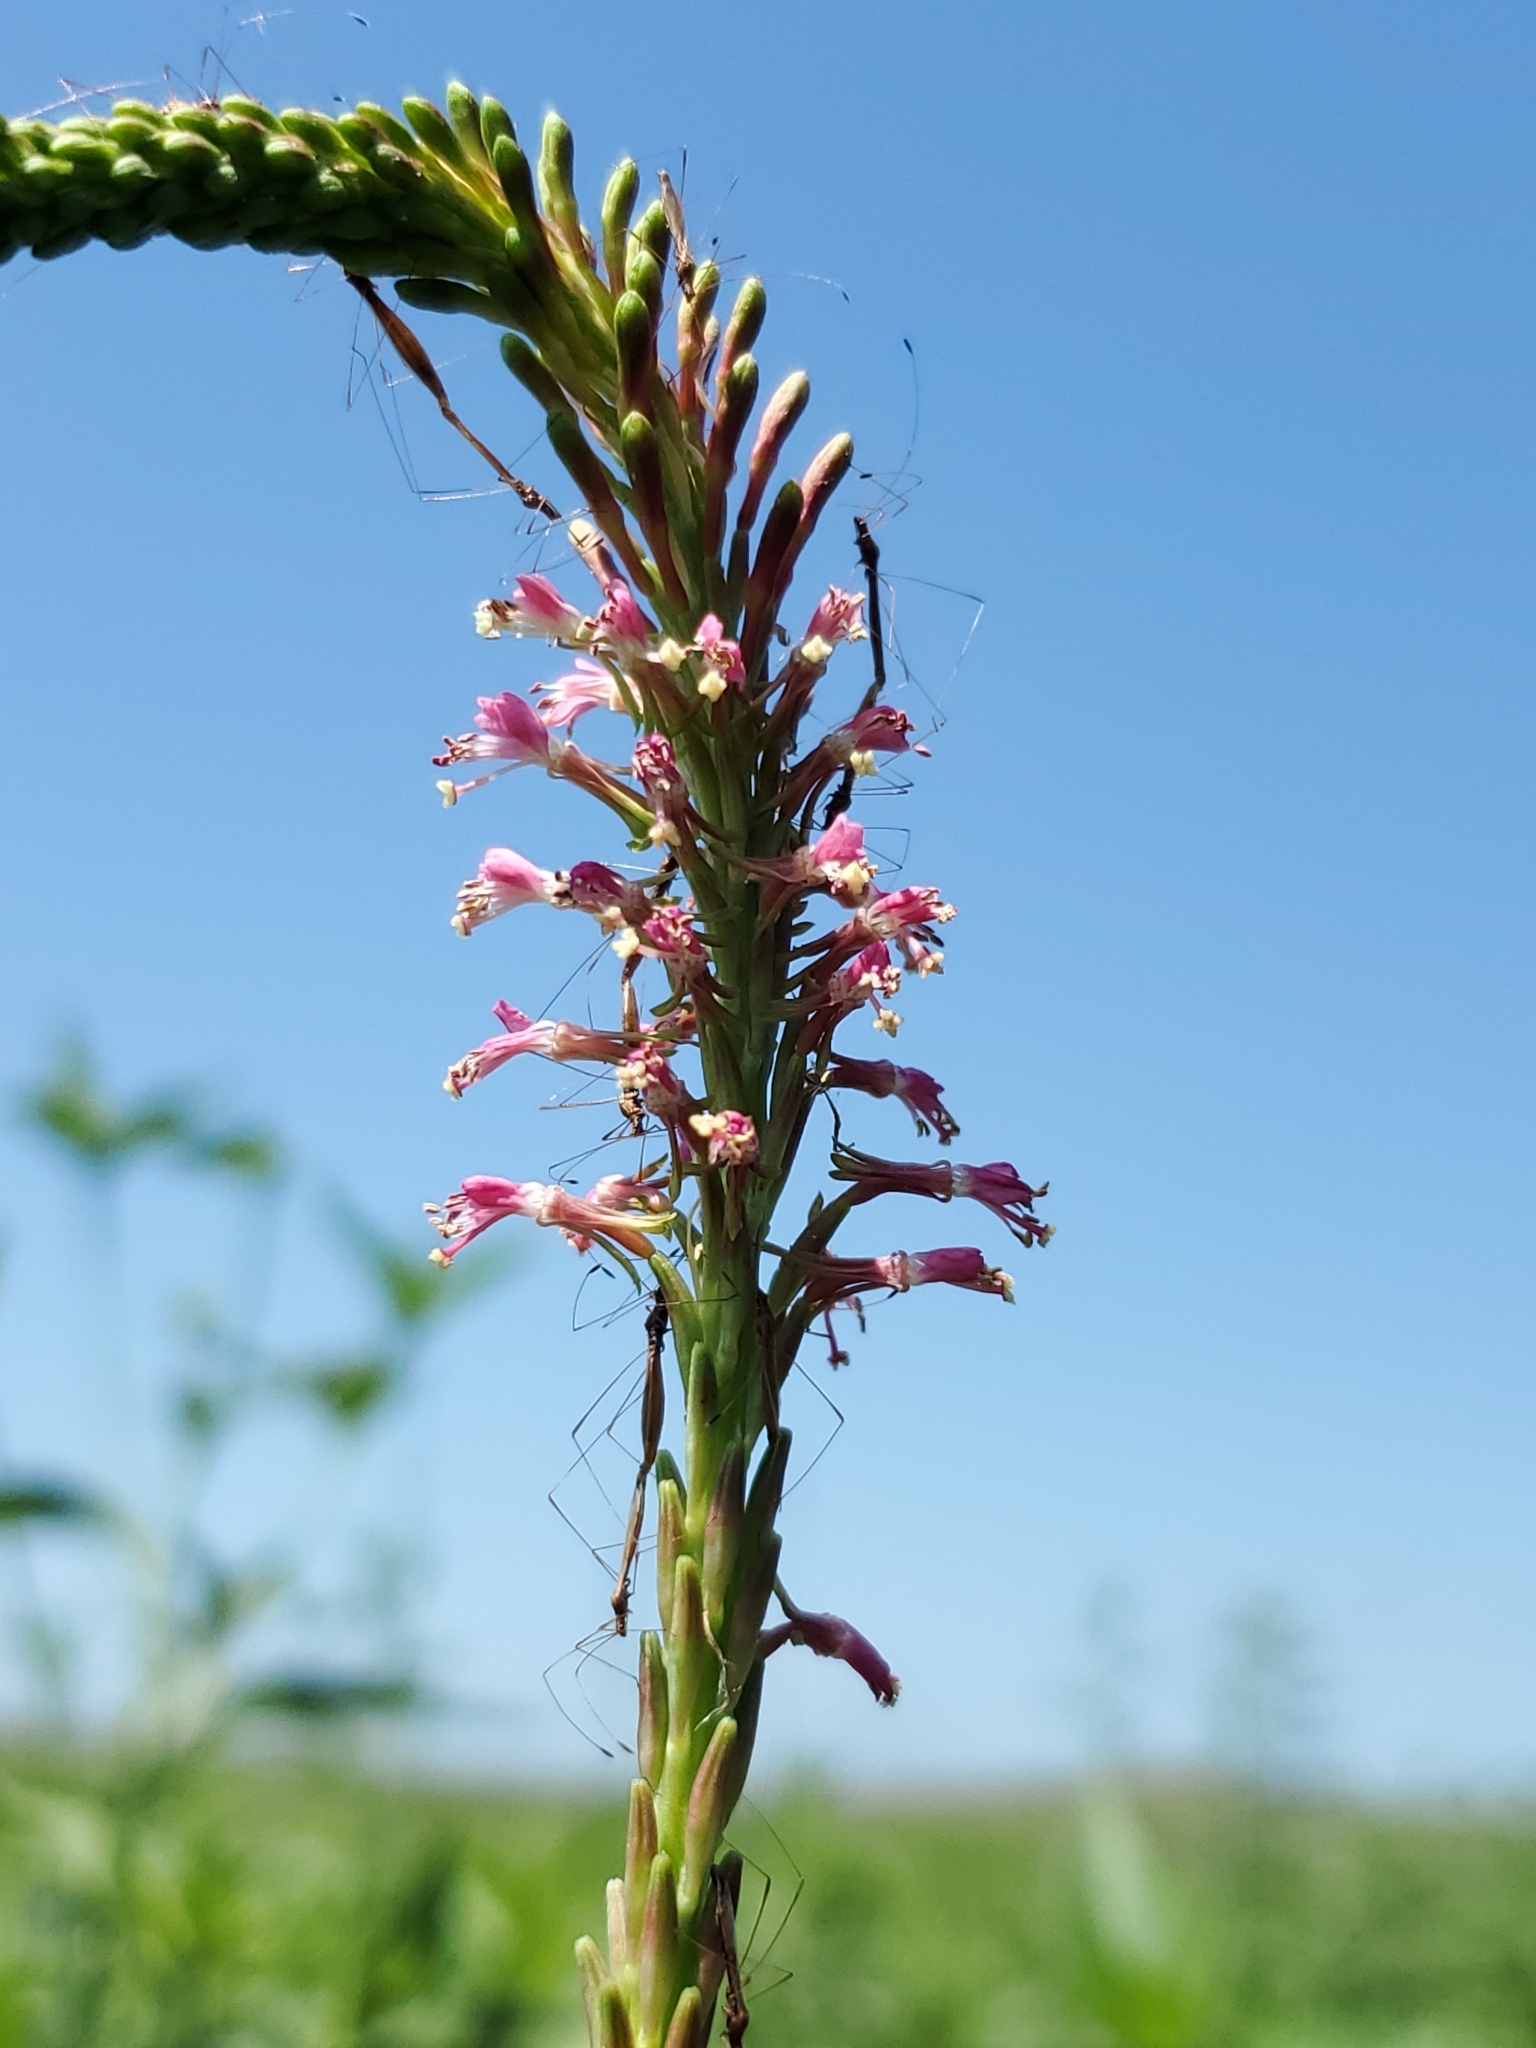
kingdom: Plantae
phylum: Tracheophyta
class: Magnoliopsida
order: Myrtales
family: Onagraceae
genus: Oenothera
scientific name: Oenothera curtiflora
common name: Velvetweed
